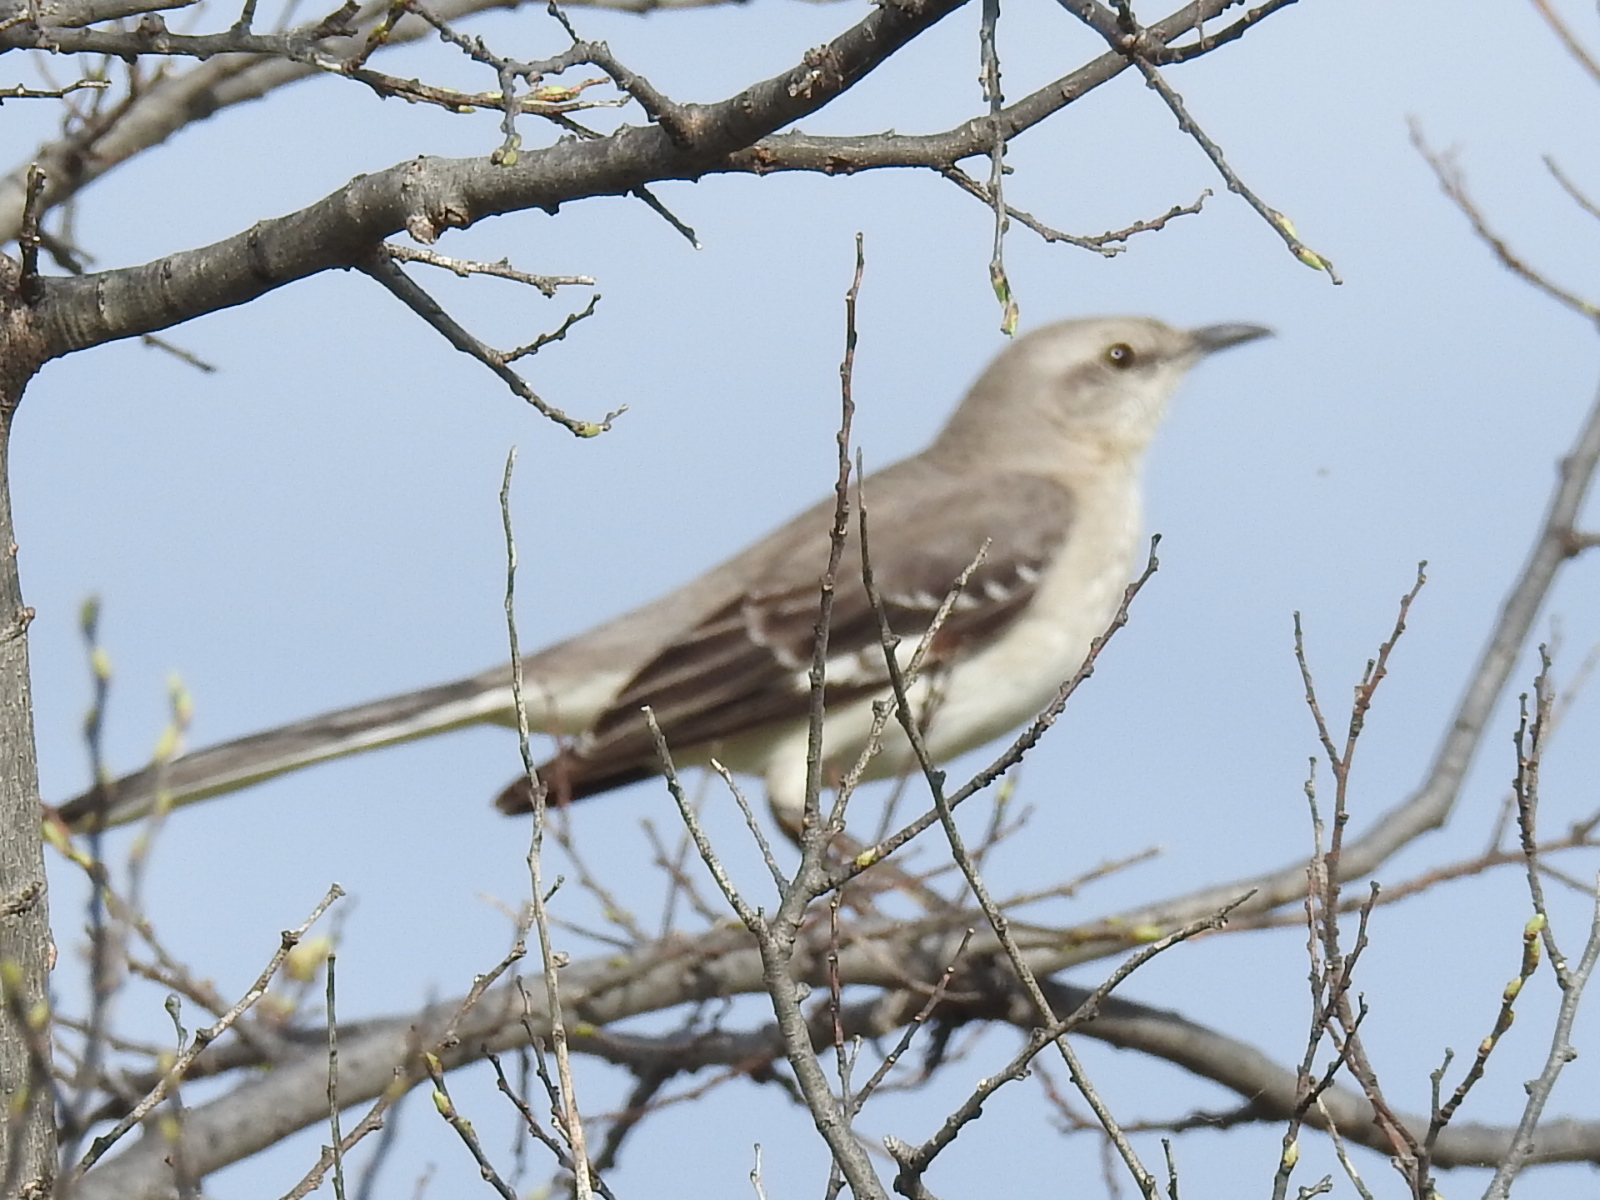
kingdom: Animalia
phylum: Chordata
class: Aves
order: Passeriformes
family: Mimidae
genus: Mimus
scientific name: Mimus polyglottos
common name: Northern mockingbird
